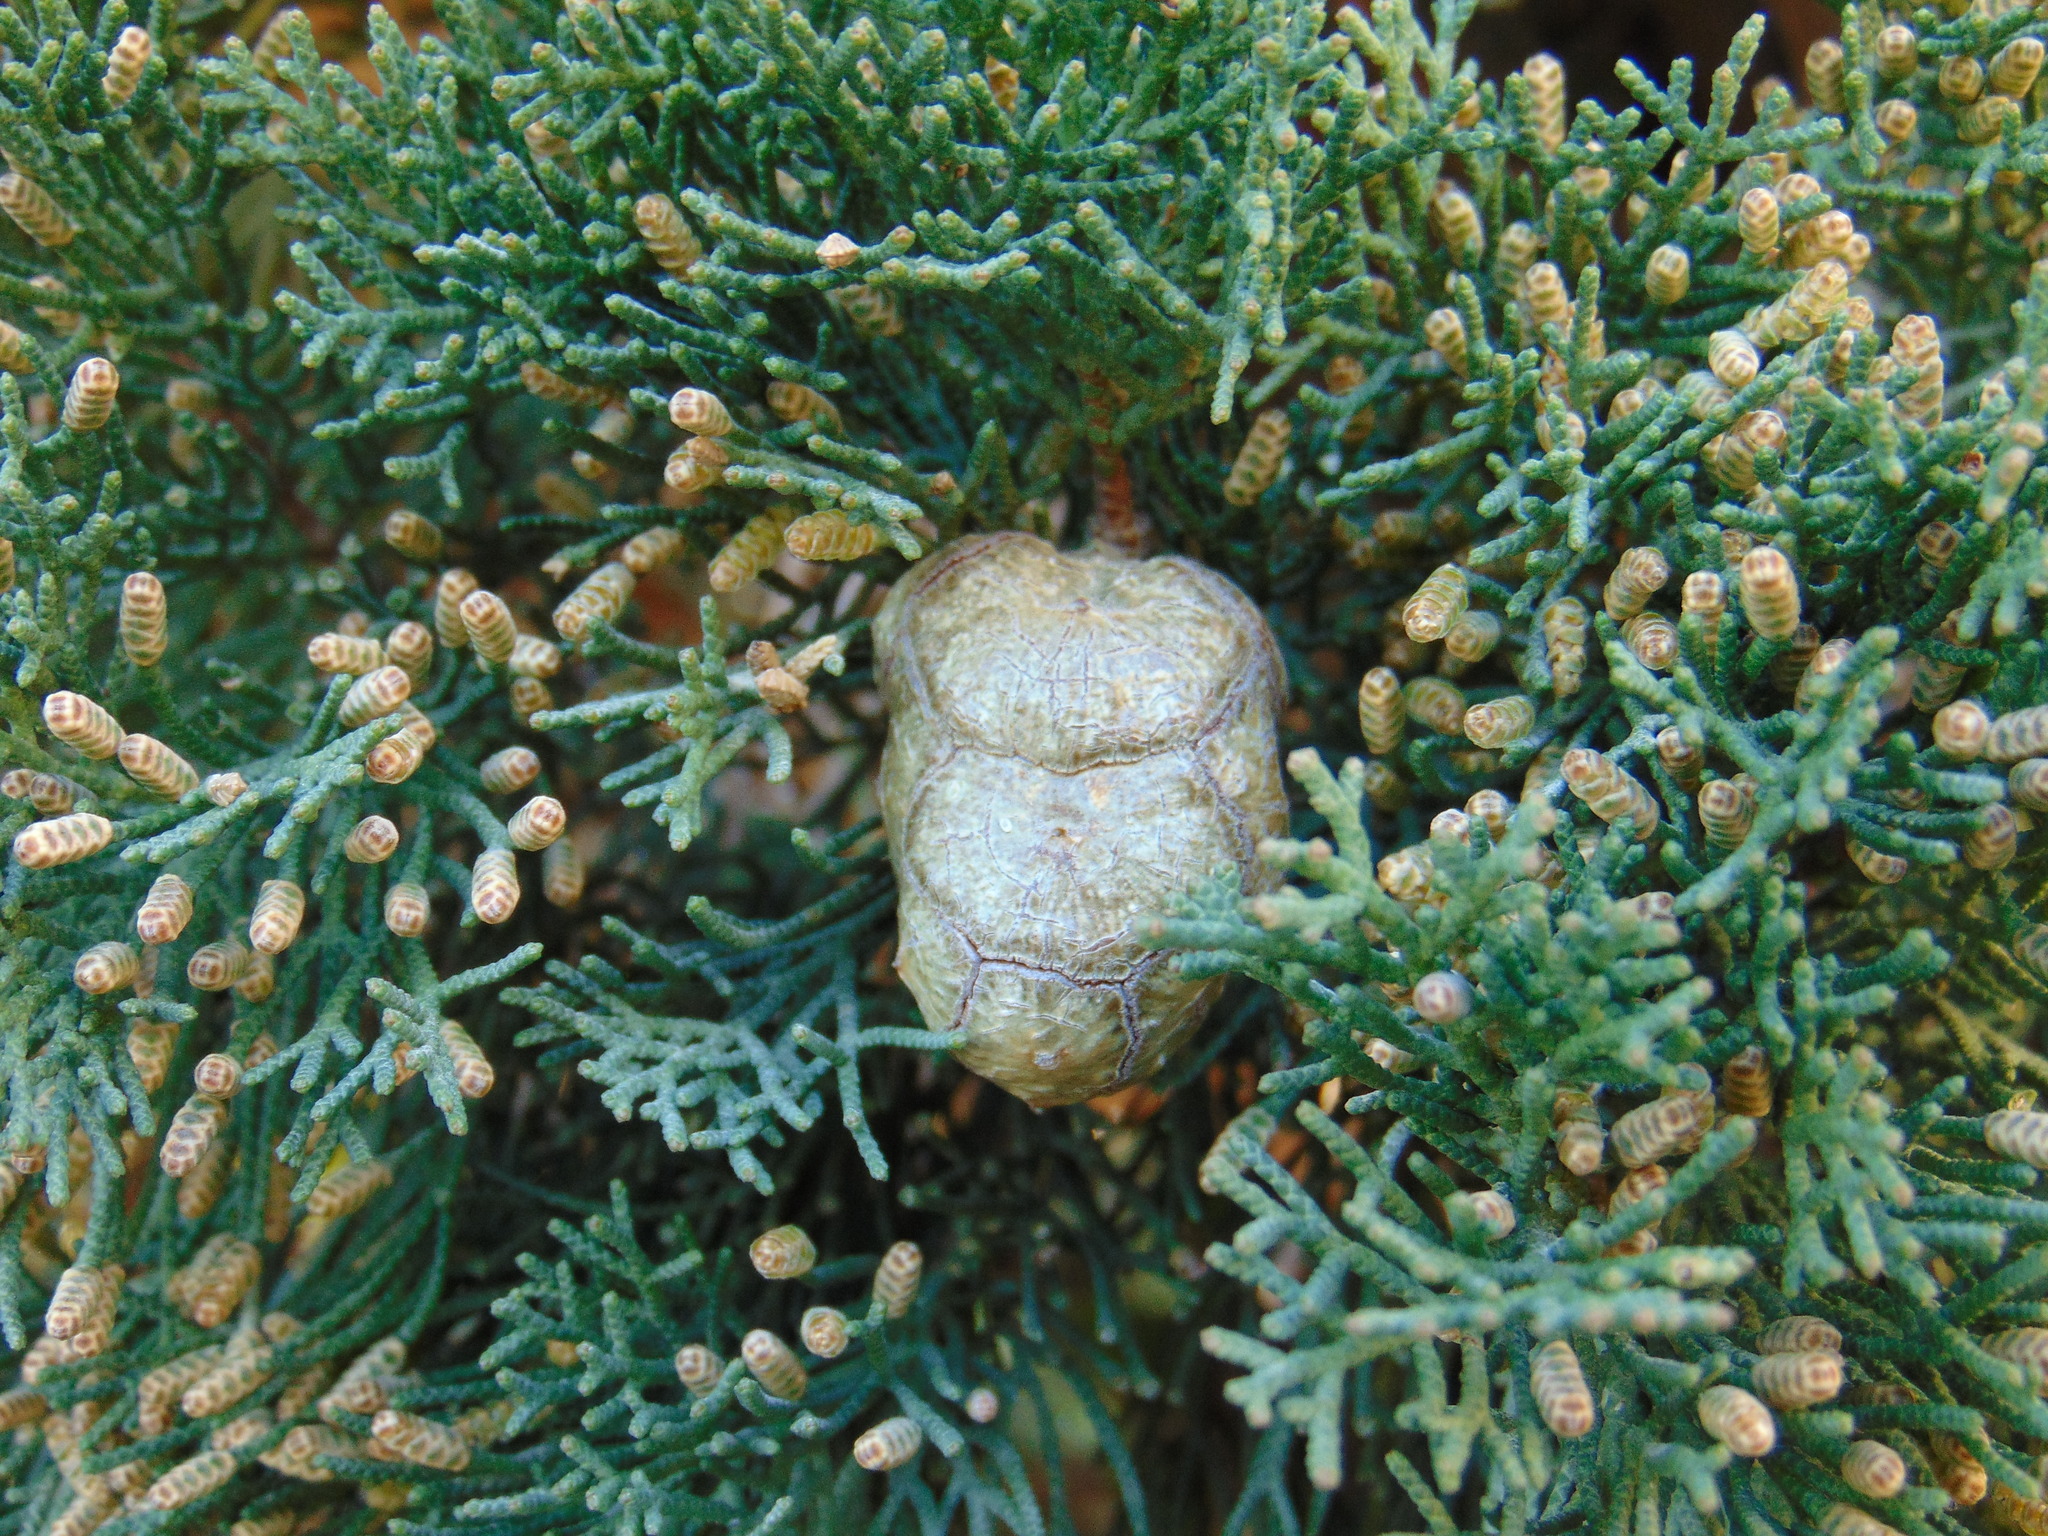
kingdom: Plantae
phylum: Tracheophyta
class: Pinopsida
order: Pinales
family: Cupressaceae
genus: Cupressus
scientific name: Cupressus sempervirens
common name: Italian cypress
